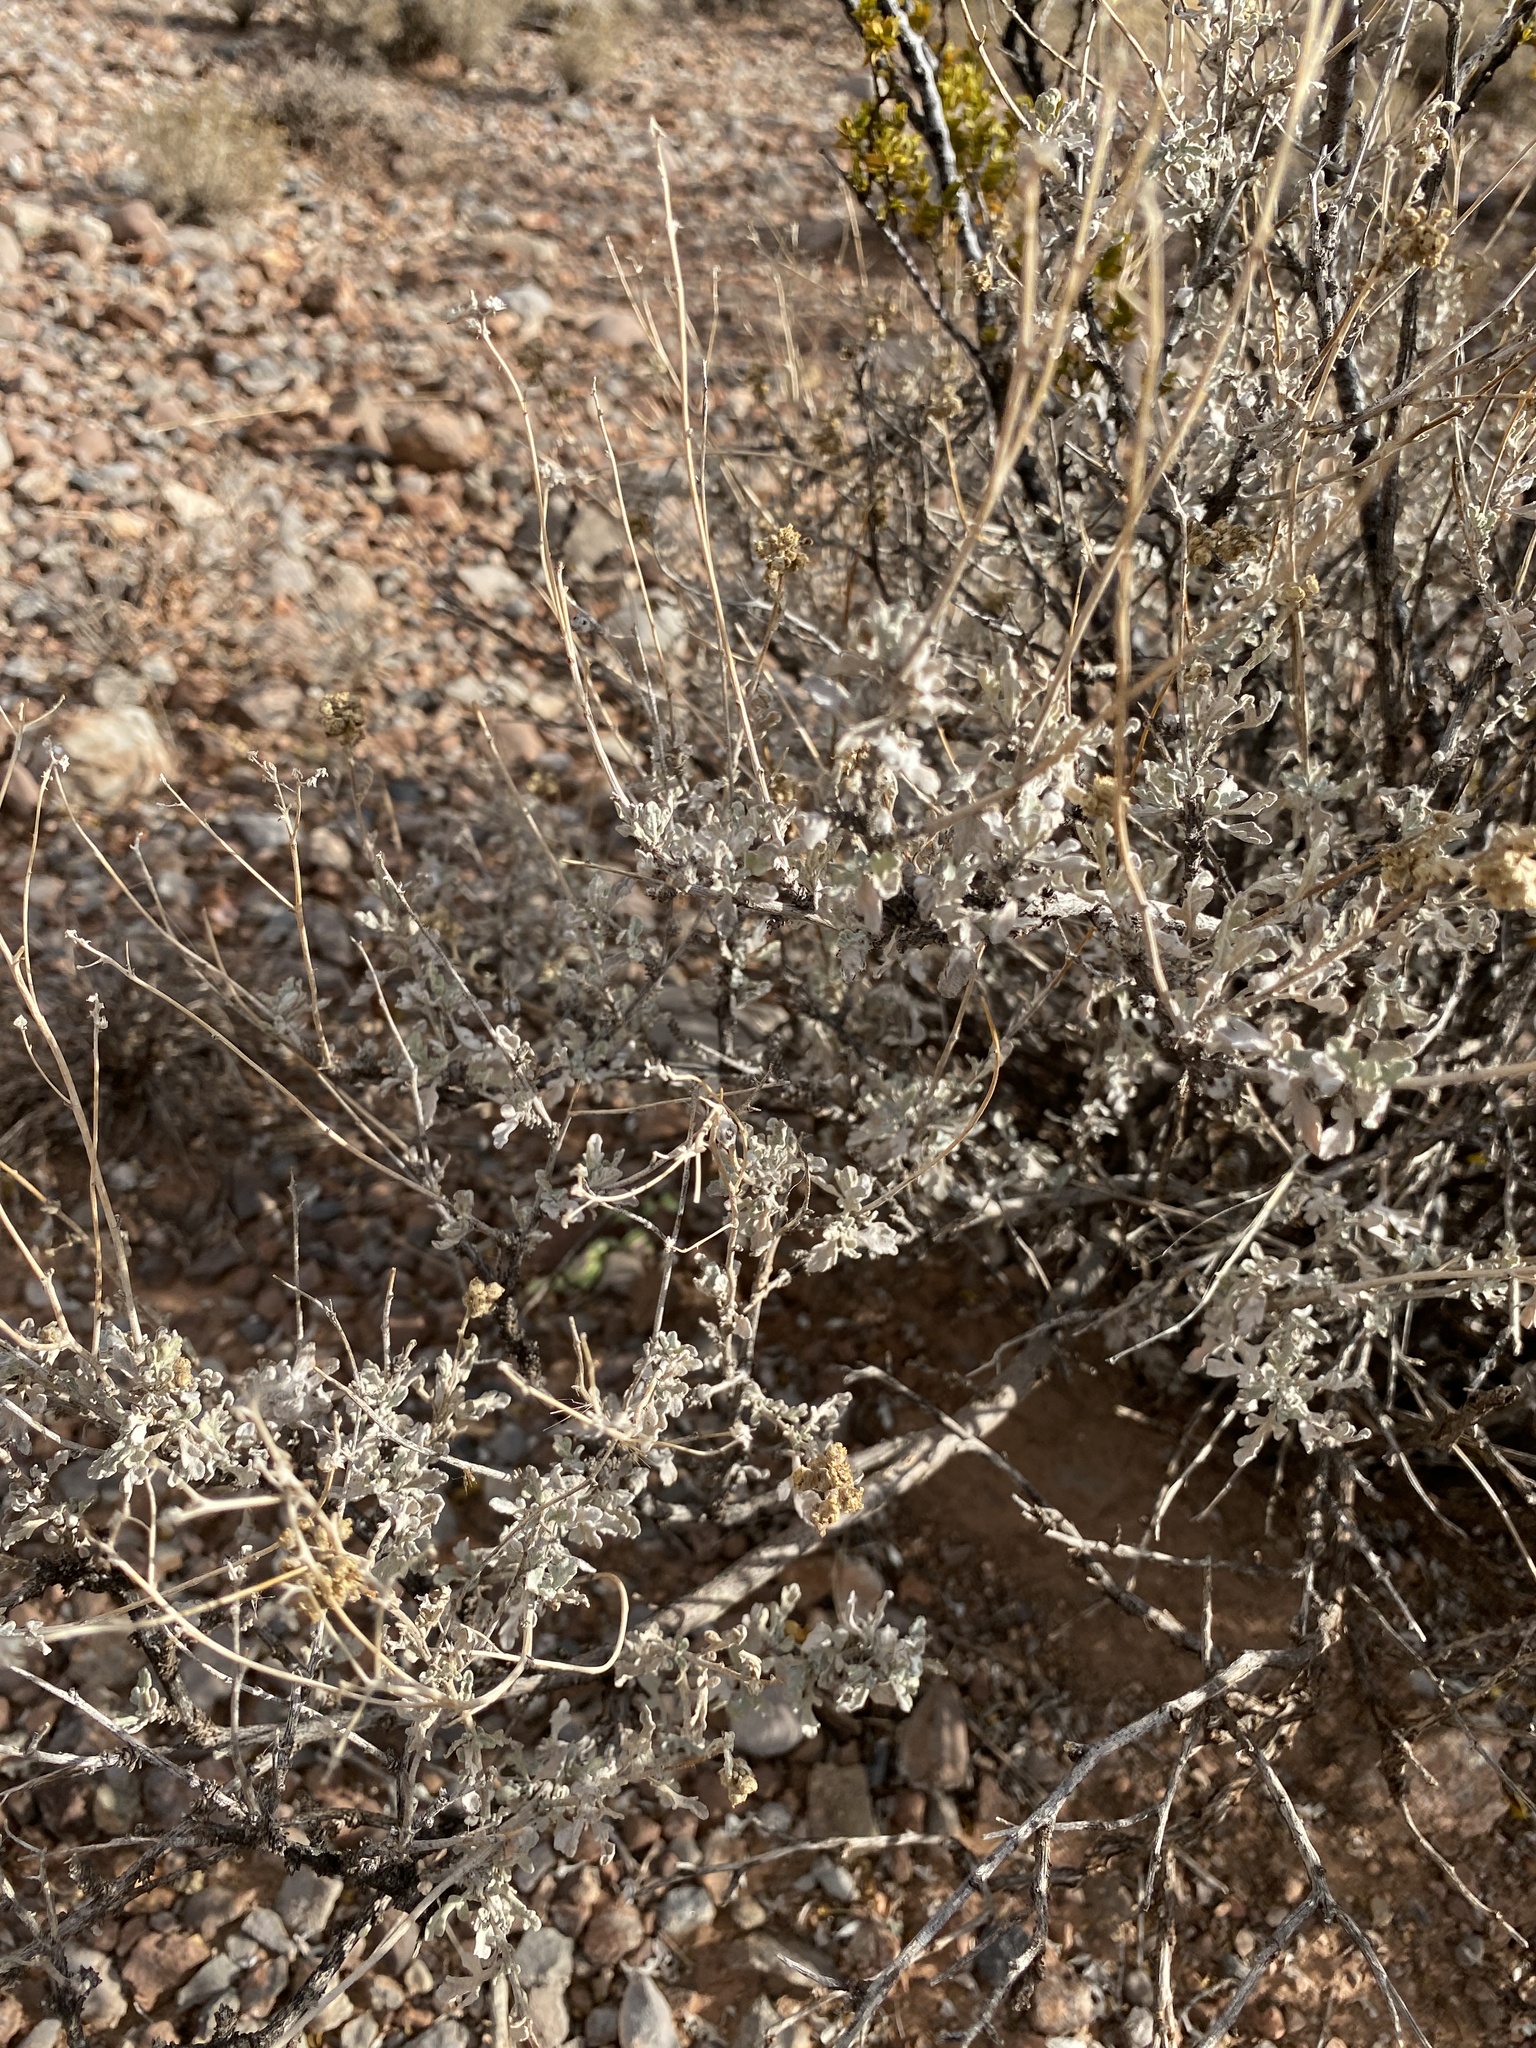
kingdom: Plantae
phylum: Tracheophyta
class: Magnoliopsida
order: Asterales
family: Asteraceae
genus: Parthenium
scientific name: Parthenium incanum
